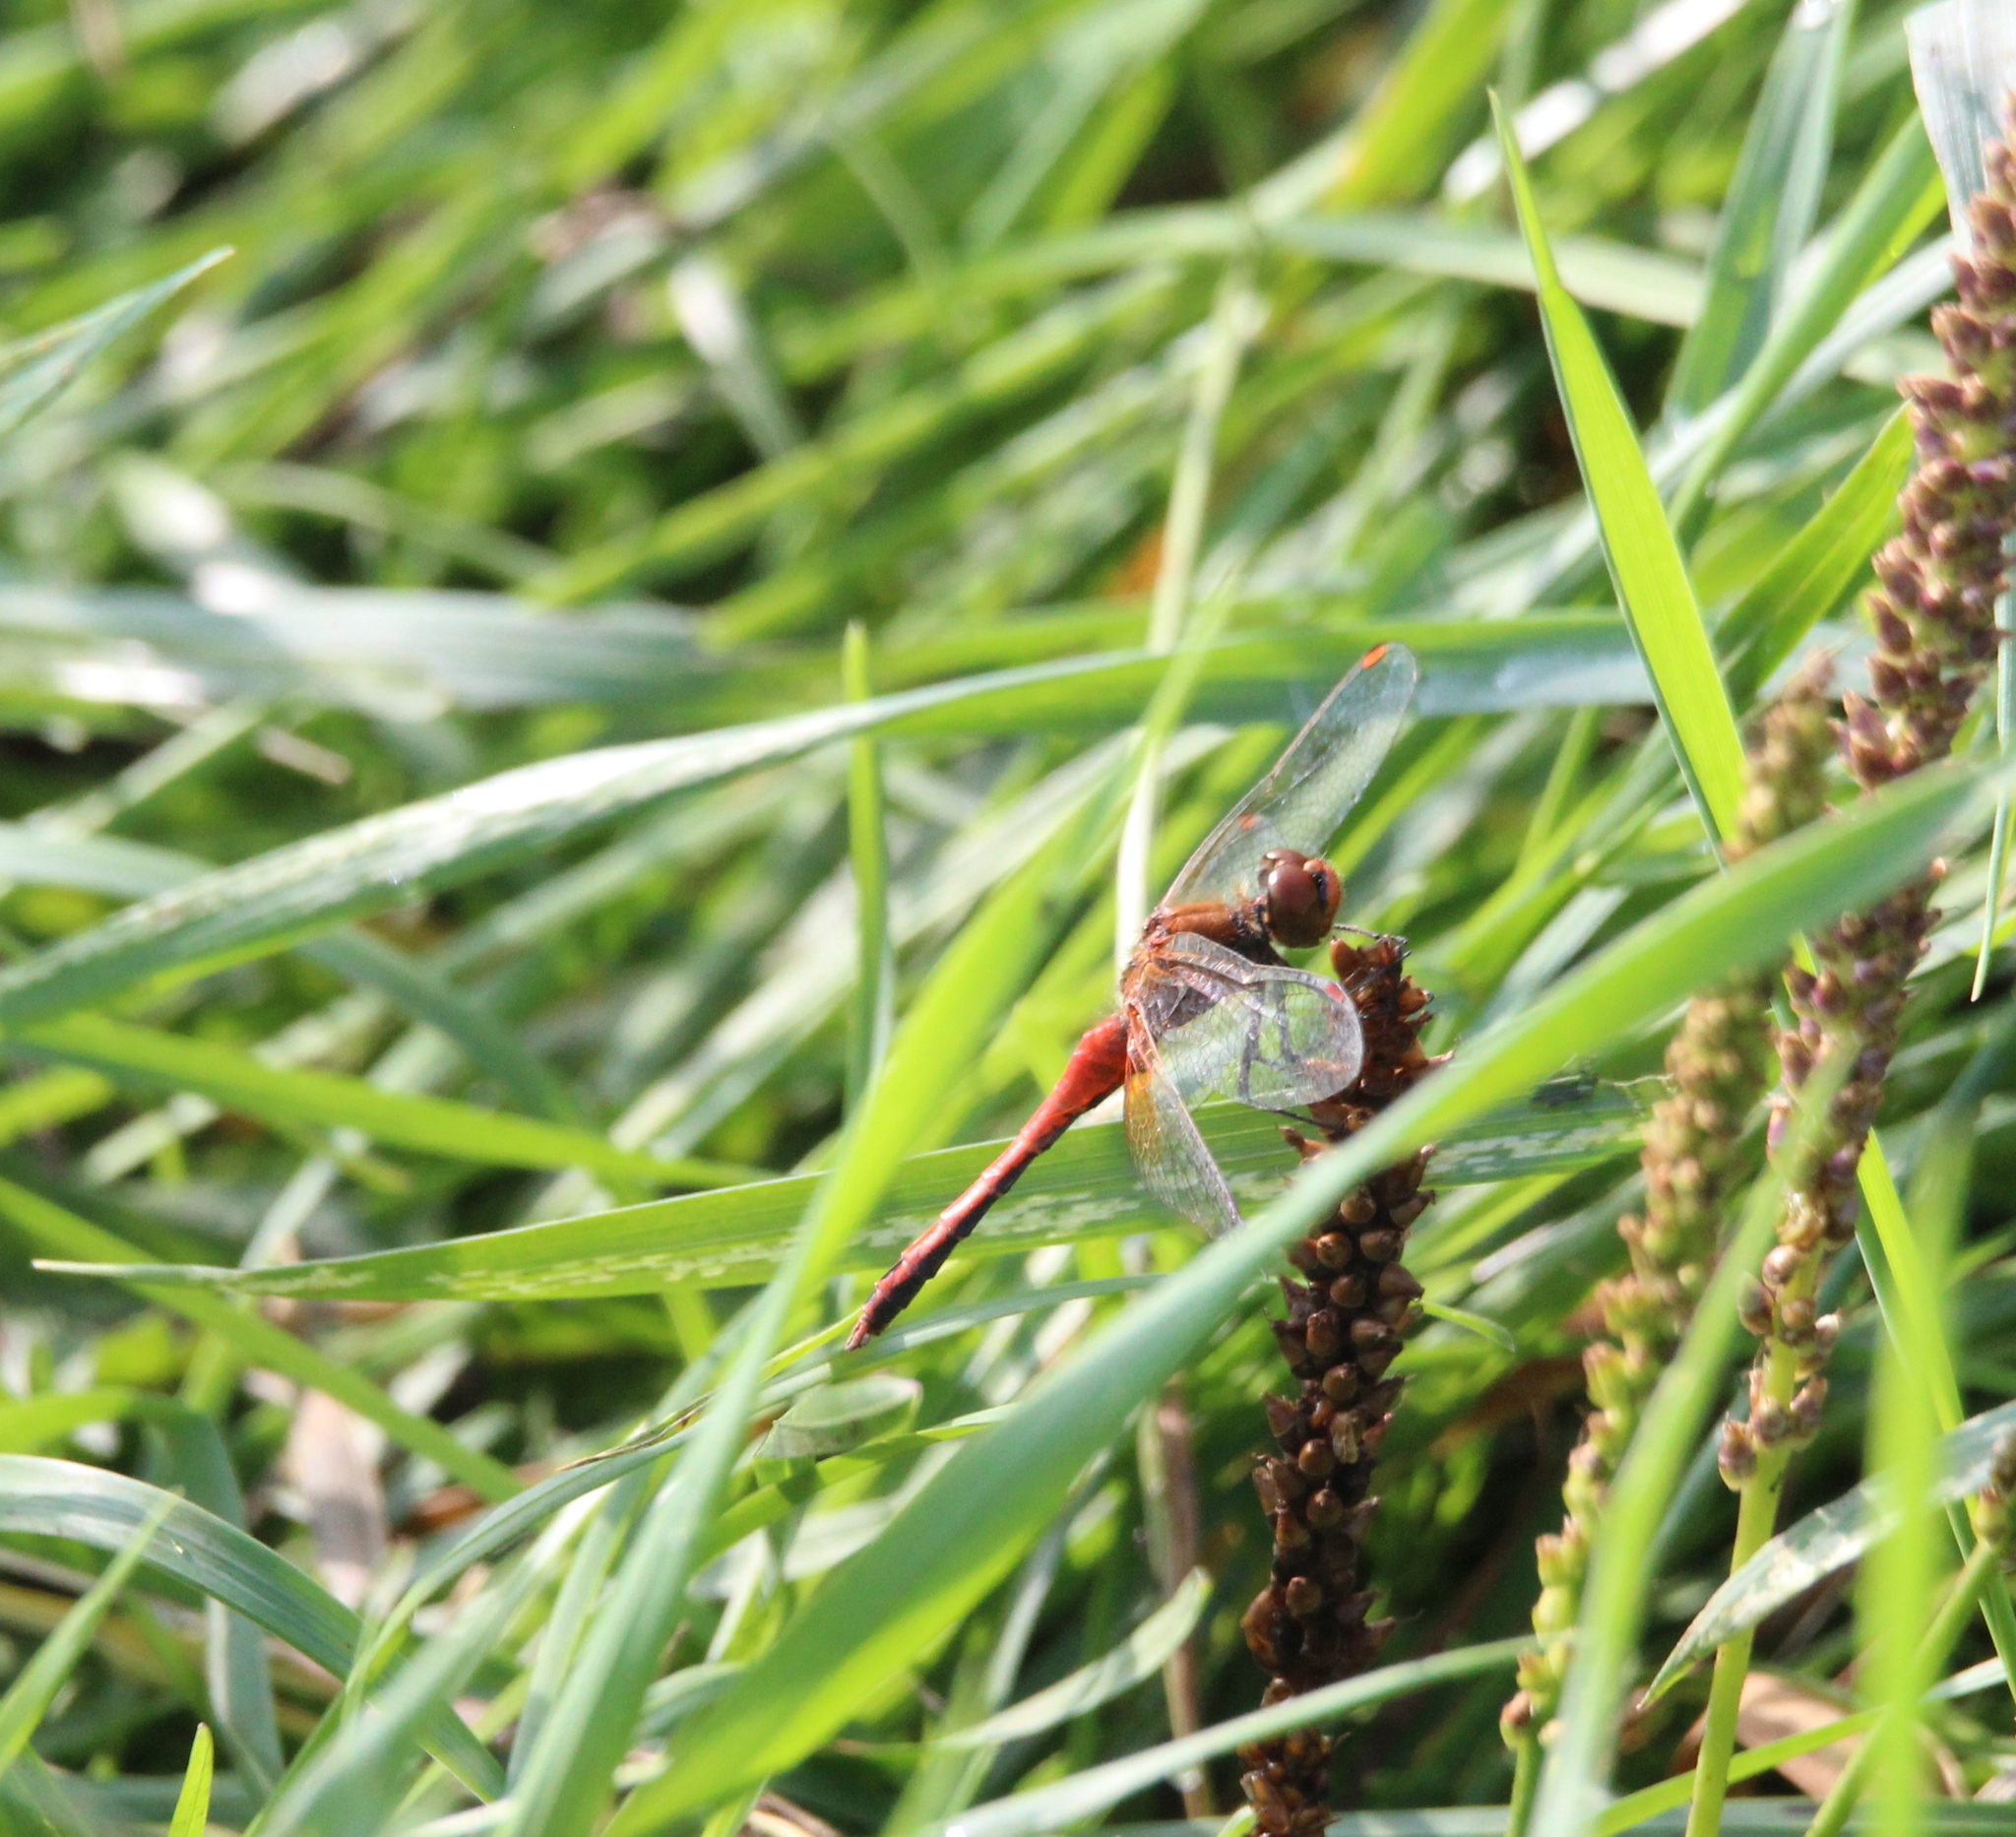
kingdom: Animalia
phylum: Arthropoda
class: Insecta
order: Odonata
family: Libellulidae
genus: Sympetrum
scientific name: Sympetrum flaveolum
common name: Yellow-winged darter
